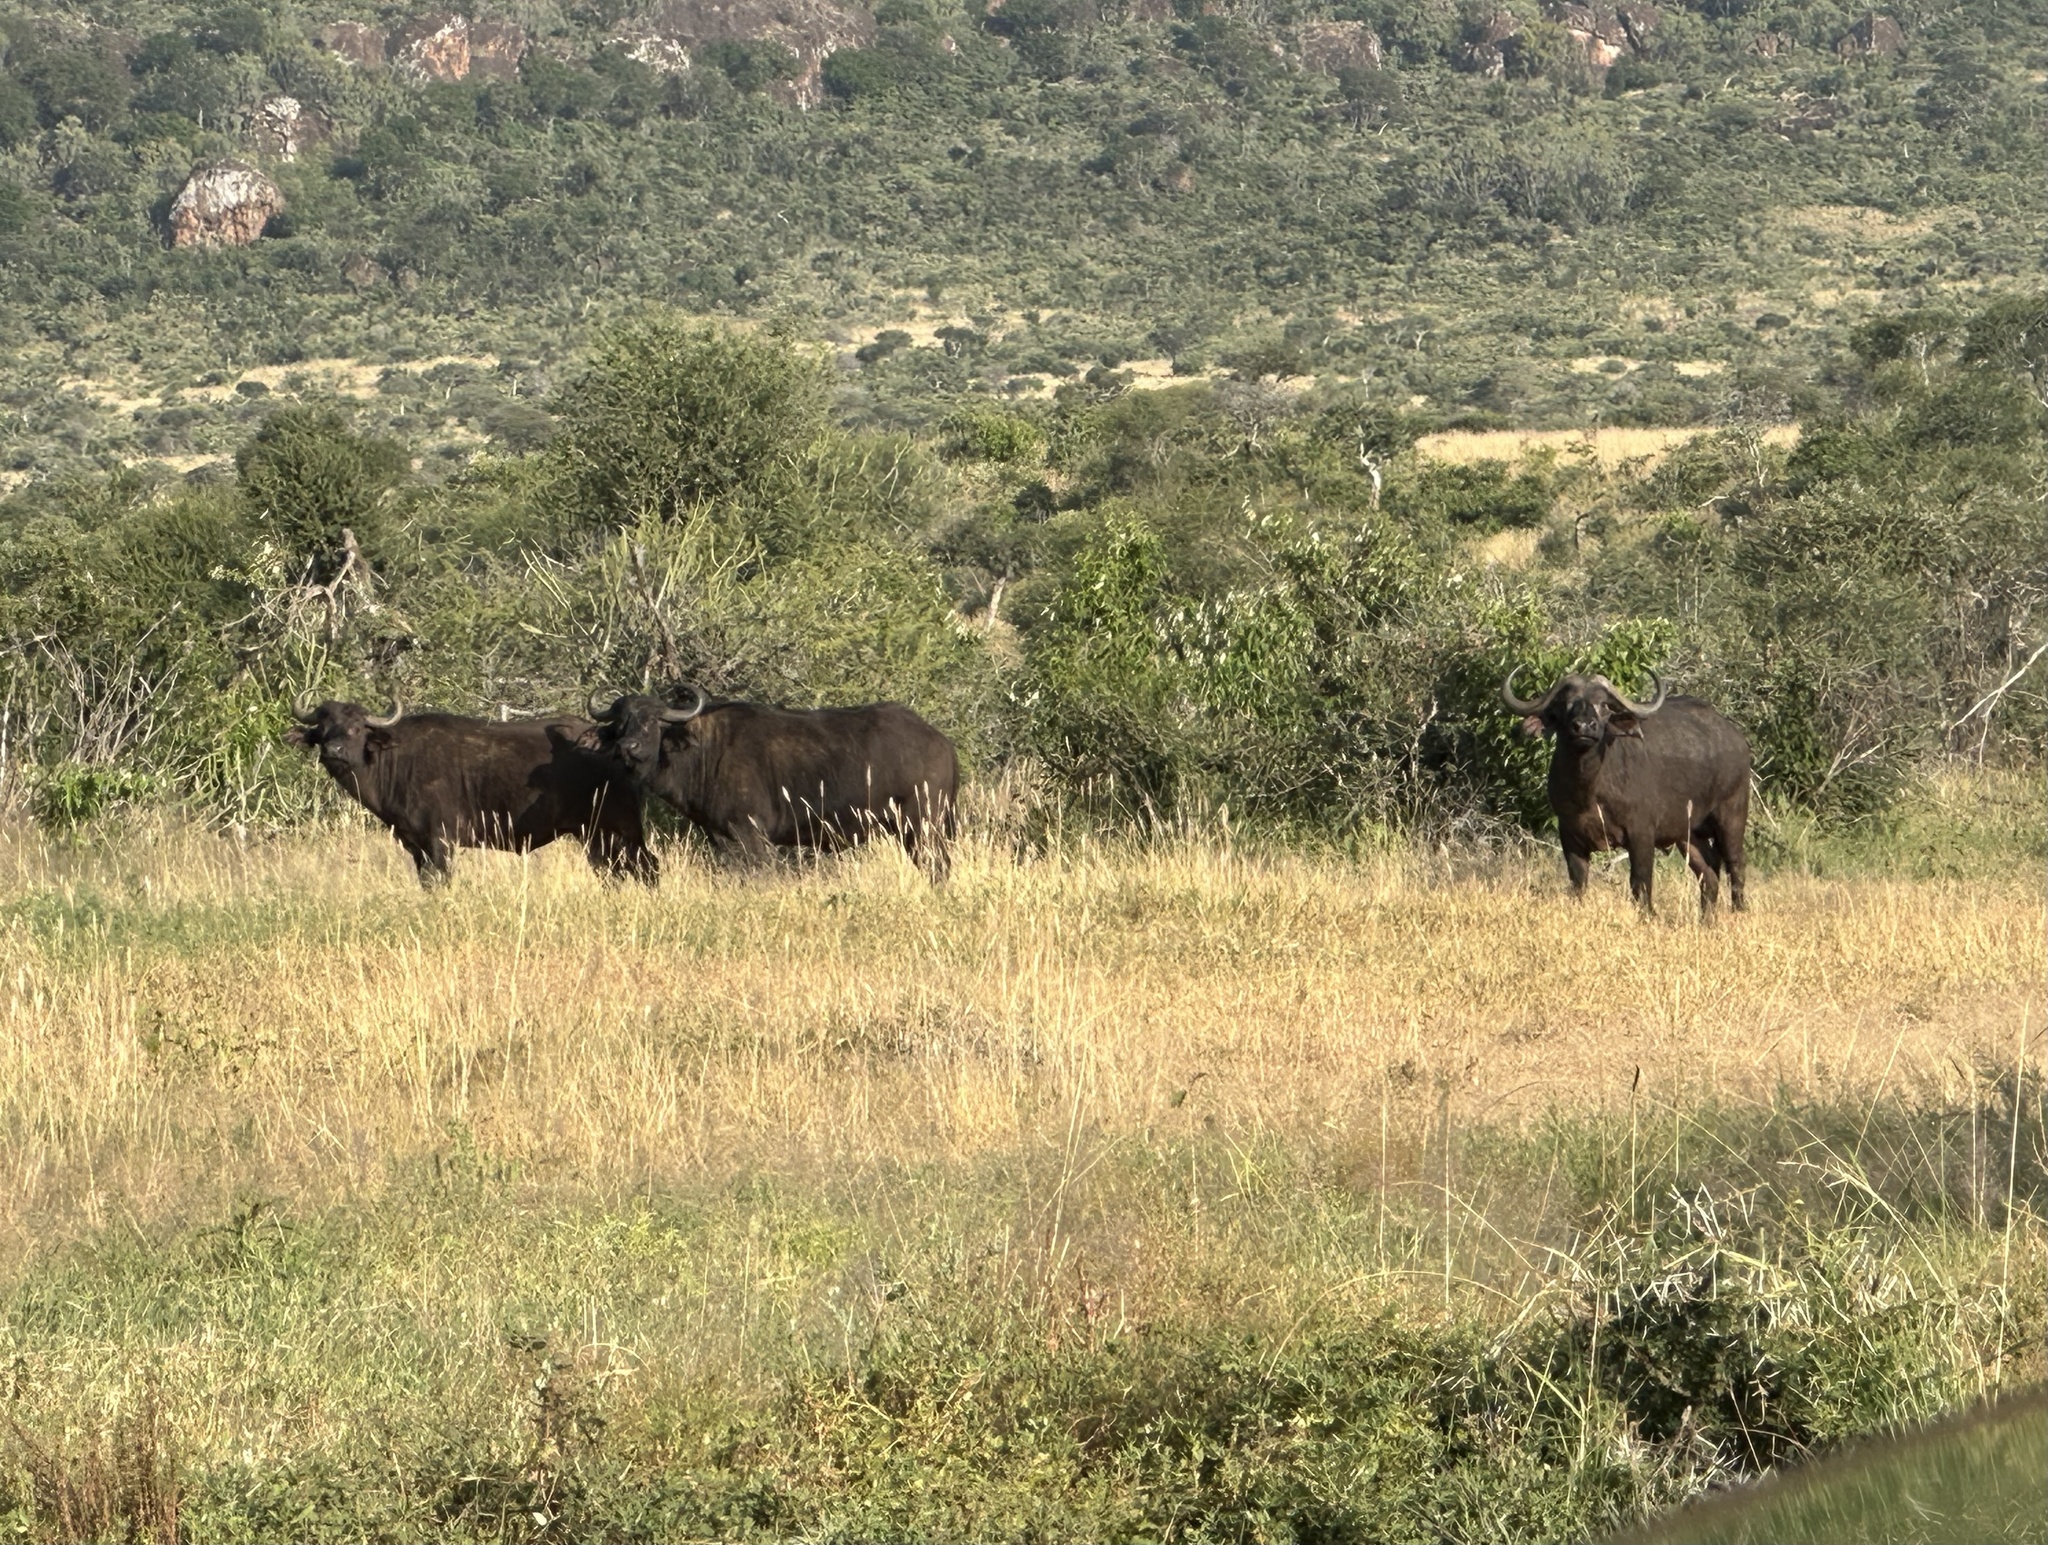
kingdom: Animalia
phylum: Chordata
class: Mammalia
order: Artiodactyla
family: Bovidae
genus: Syncerus
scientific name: Syncerus caffer
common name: African buffalo
